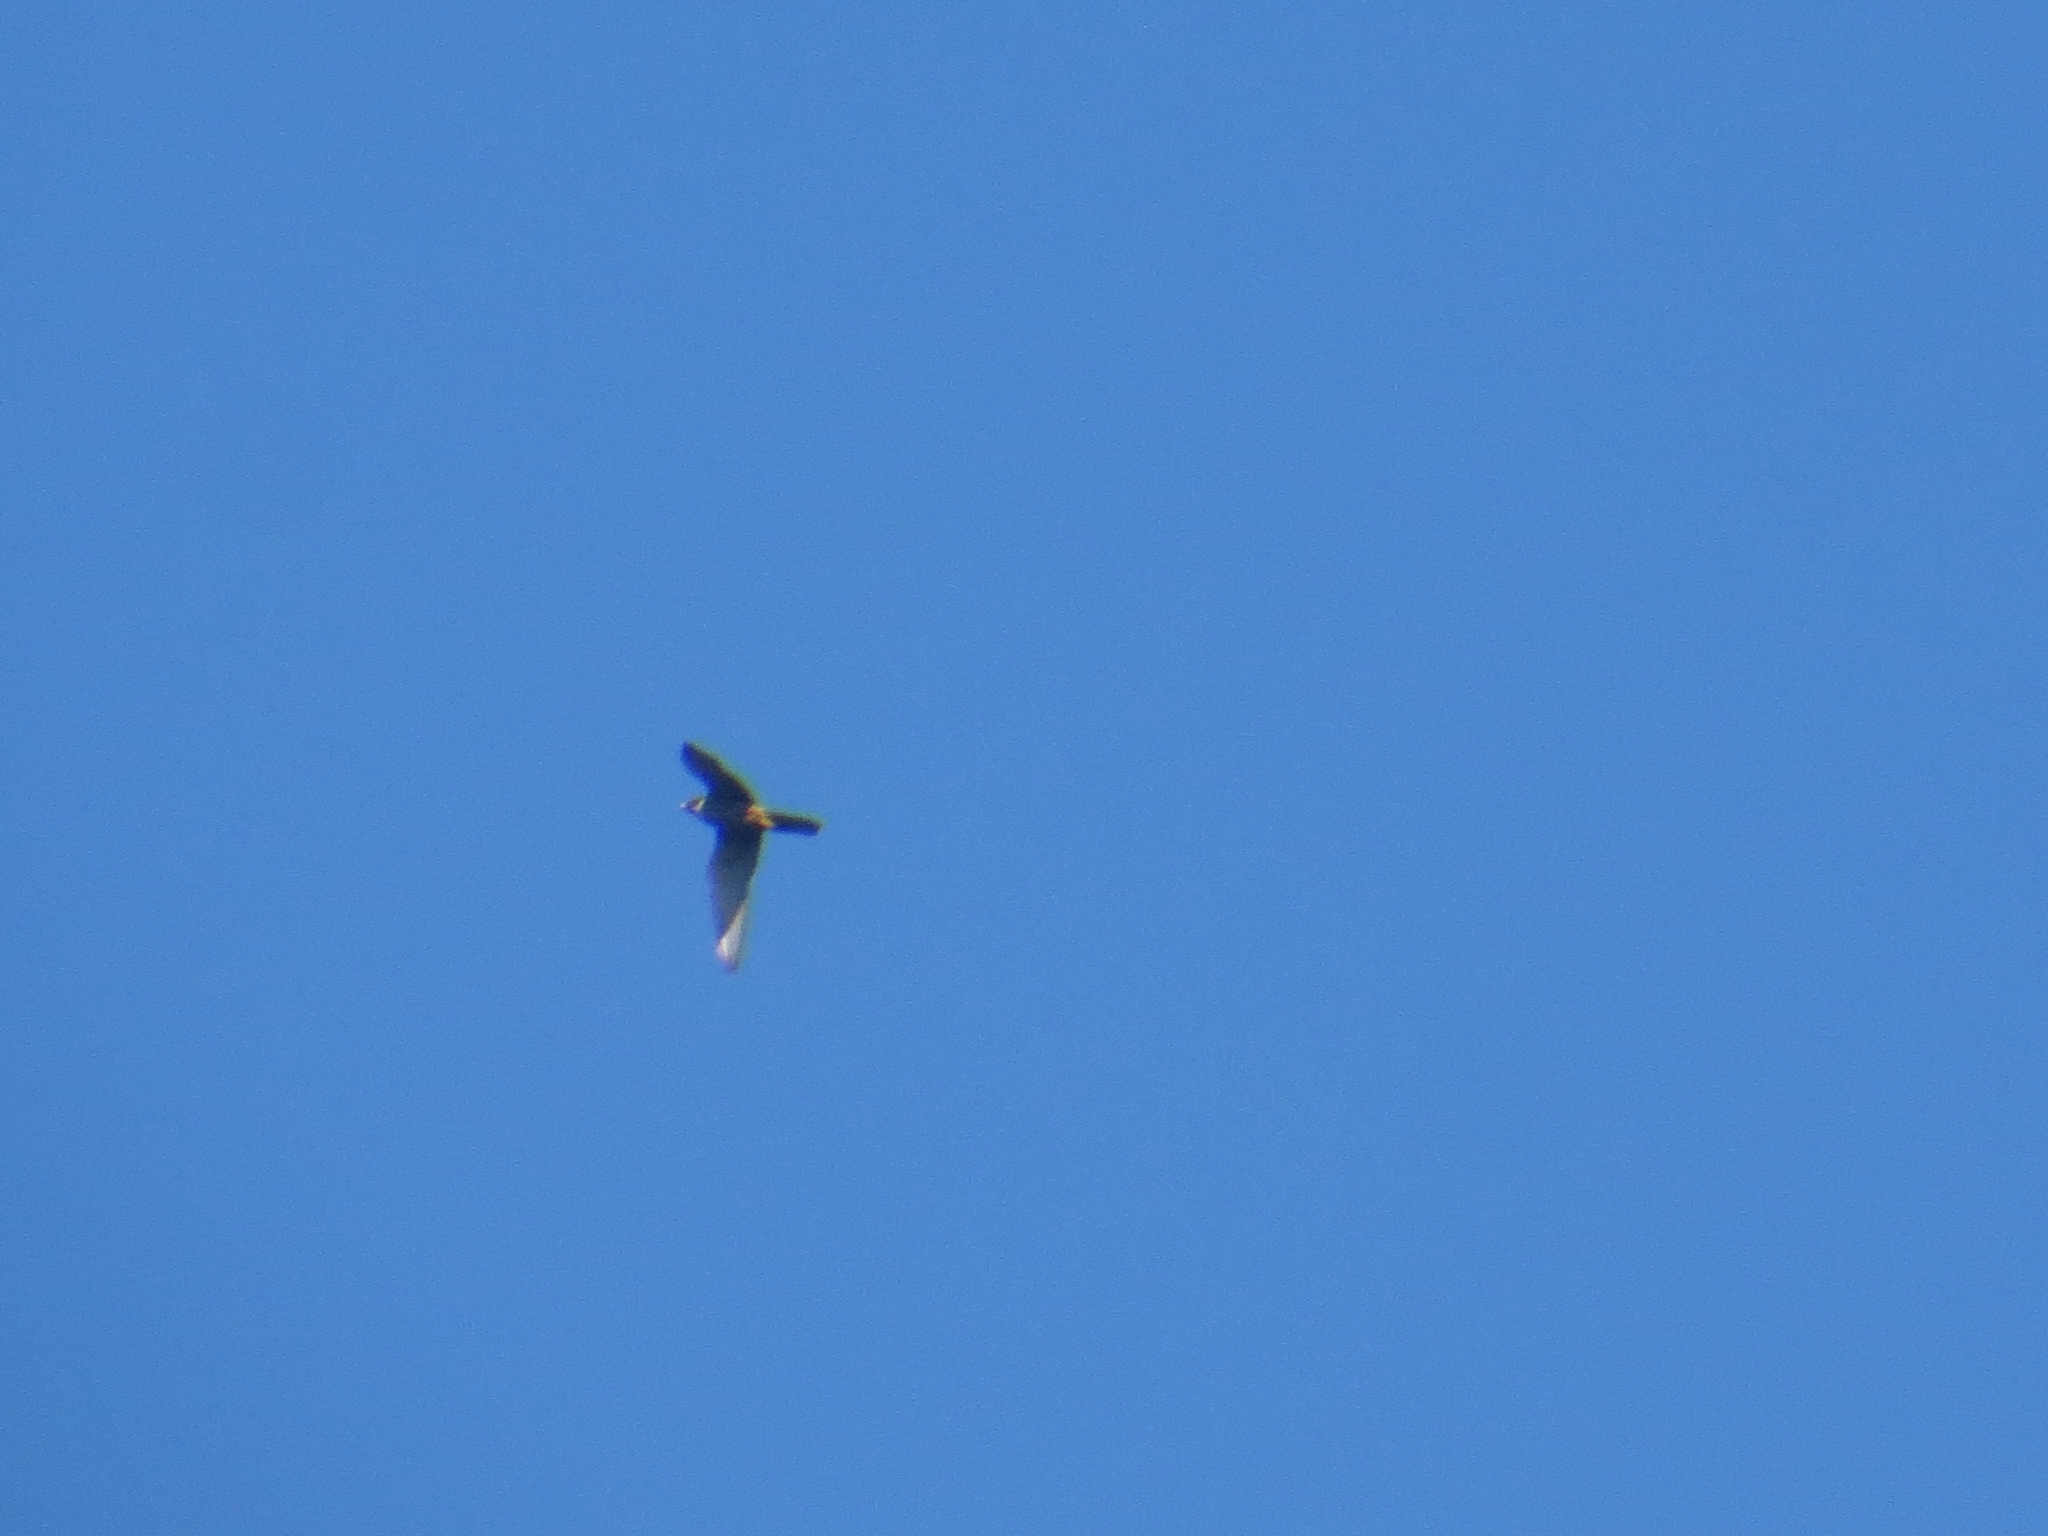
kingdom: Animalia
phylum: Chordata
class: Aves
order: Falconiformes
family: Falconidae
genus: Falco
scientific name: Falco subbuteo
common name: Eurasian hobby
